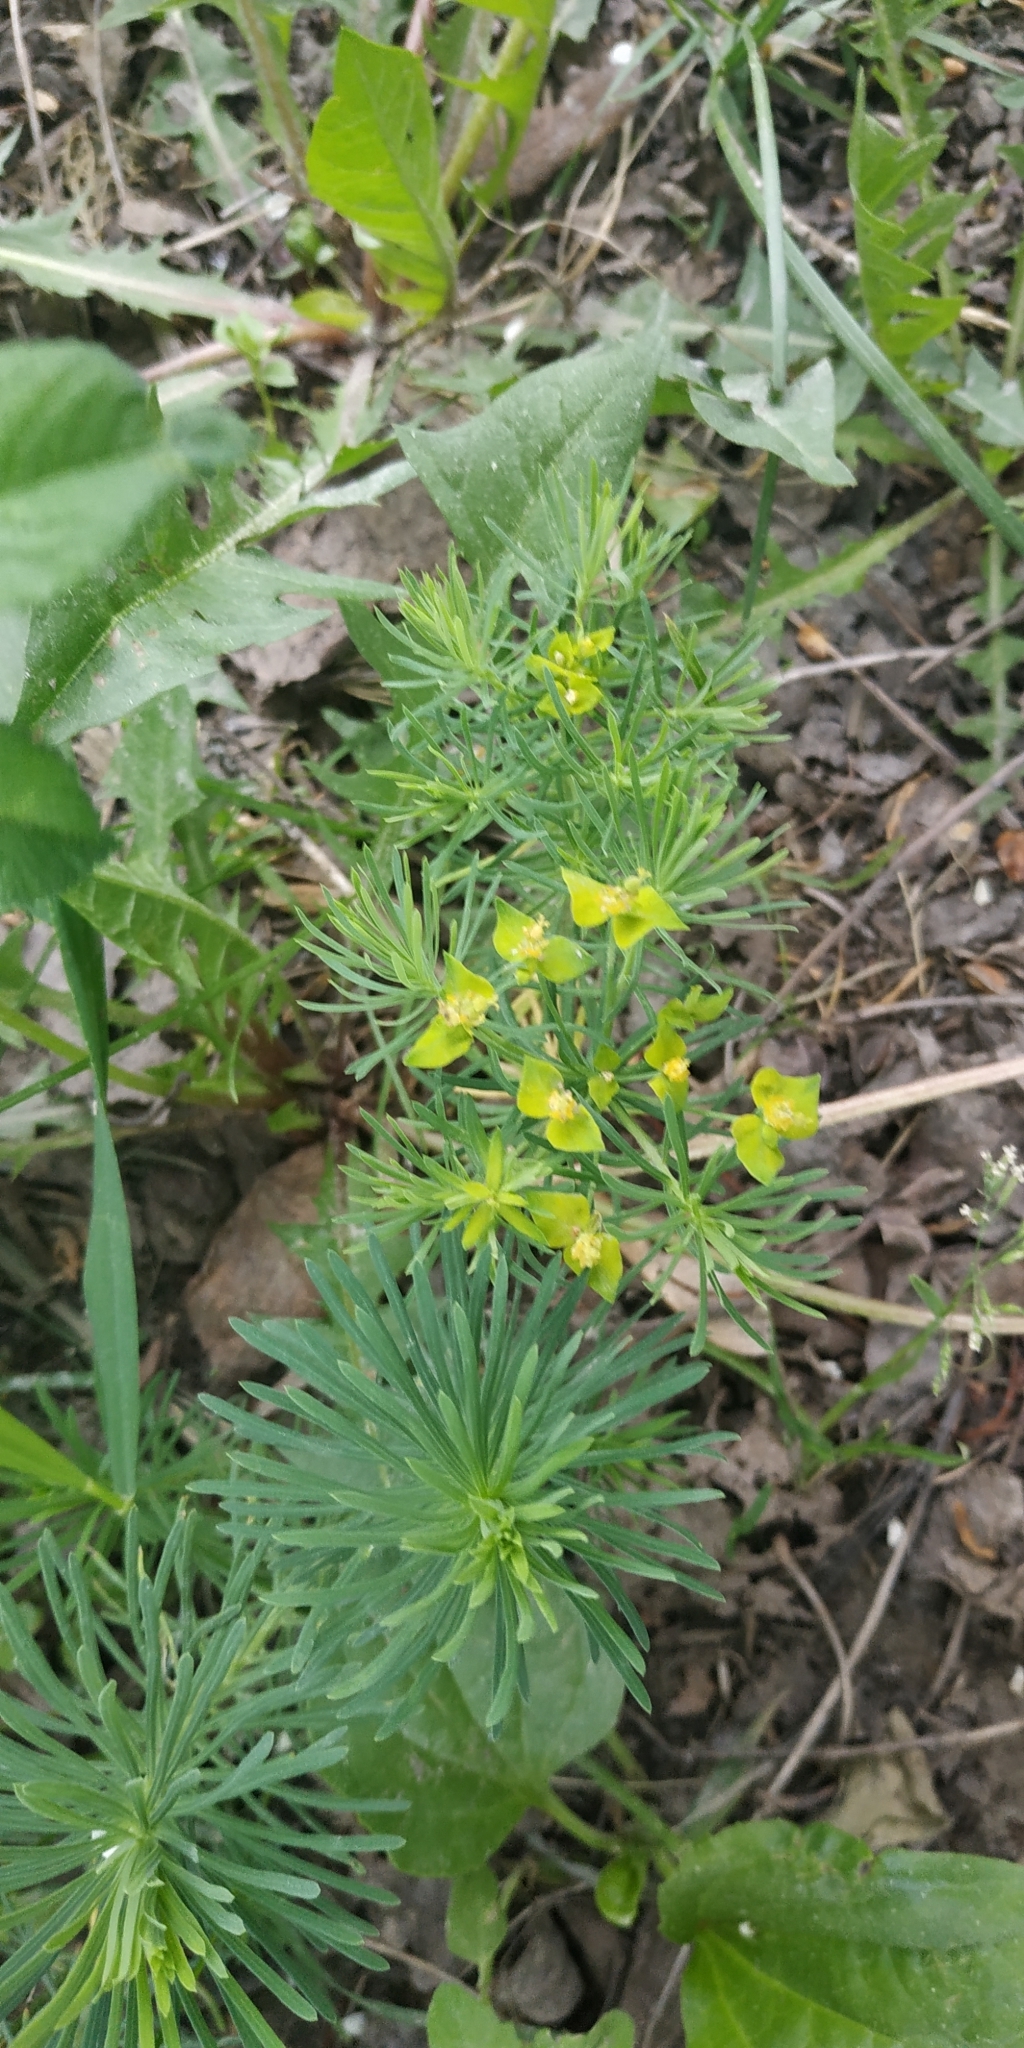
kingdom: Plantae
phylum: Tracheophyta
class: Magnoliopsida
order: Malpighiales
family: Euphorbiaceae
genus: Euphorbia
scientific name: Euphorbia cyparissias
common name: Cypress spurge
